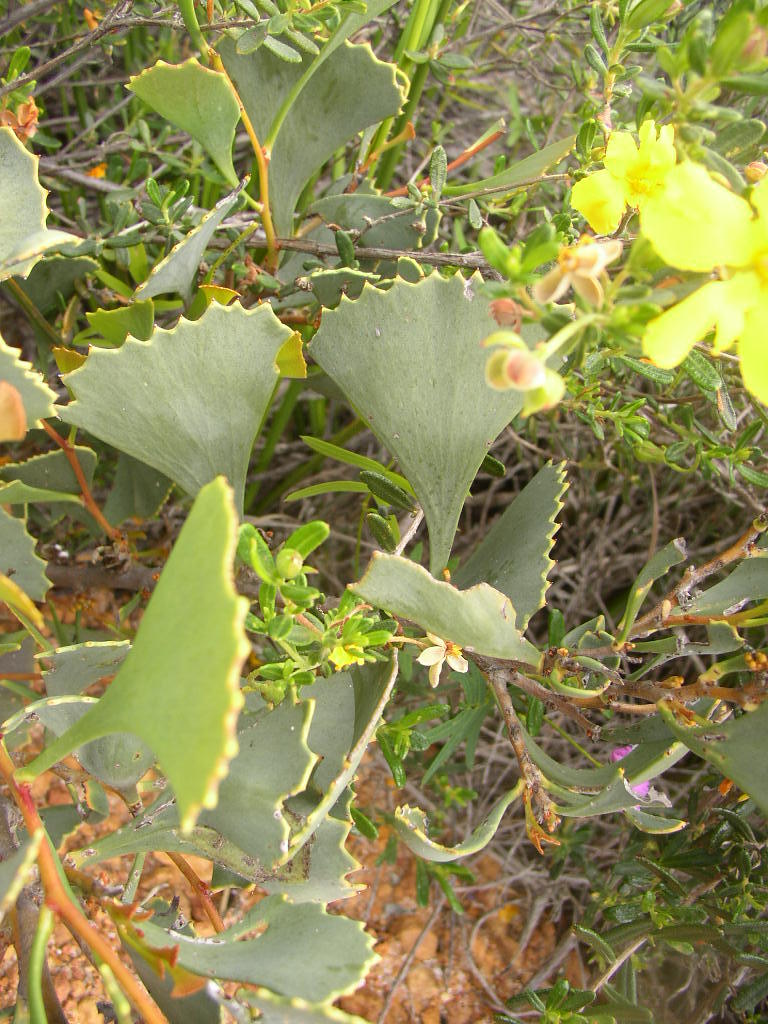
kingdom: Plantae
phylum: Tracheophyta
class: Magnoliopsida
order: Proteales
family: Proteaceae
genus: Hakea
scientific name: Hakea flabellifolia
